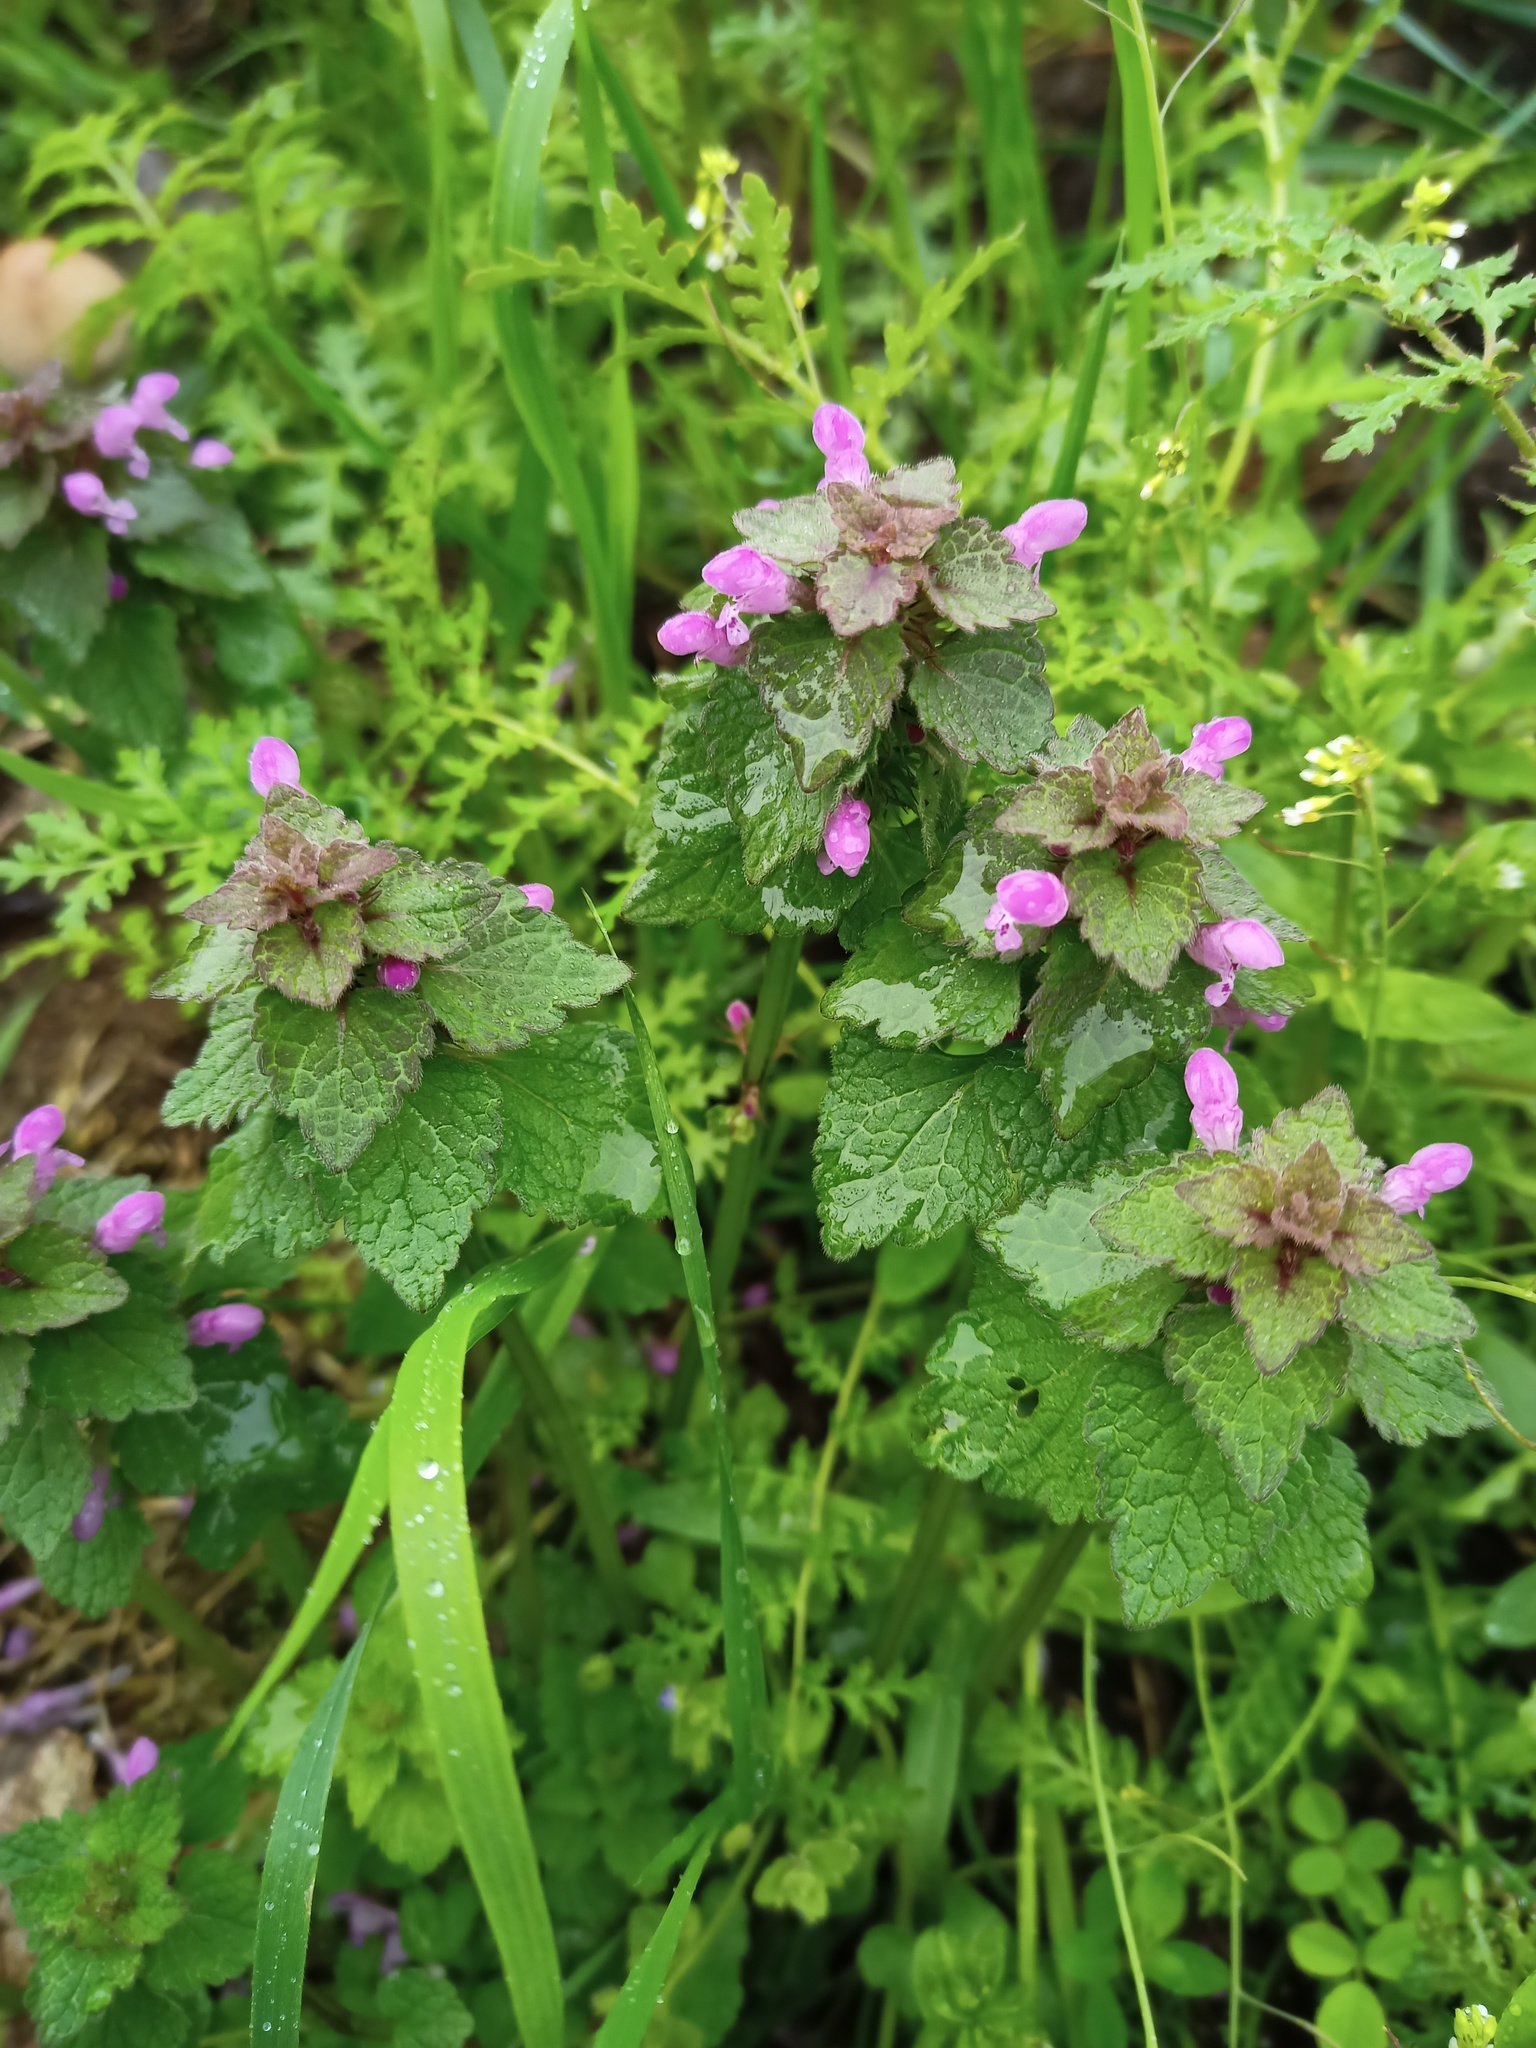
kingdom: Plantae
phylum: Tracheophyta
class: Magnoliopsida
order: Lamiales
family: Lamiaceae
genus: Lamium
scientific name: Lamium purpureum
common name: Red dead-nettle
